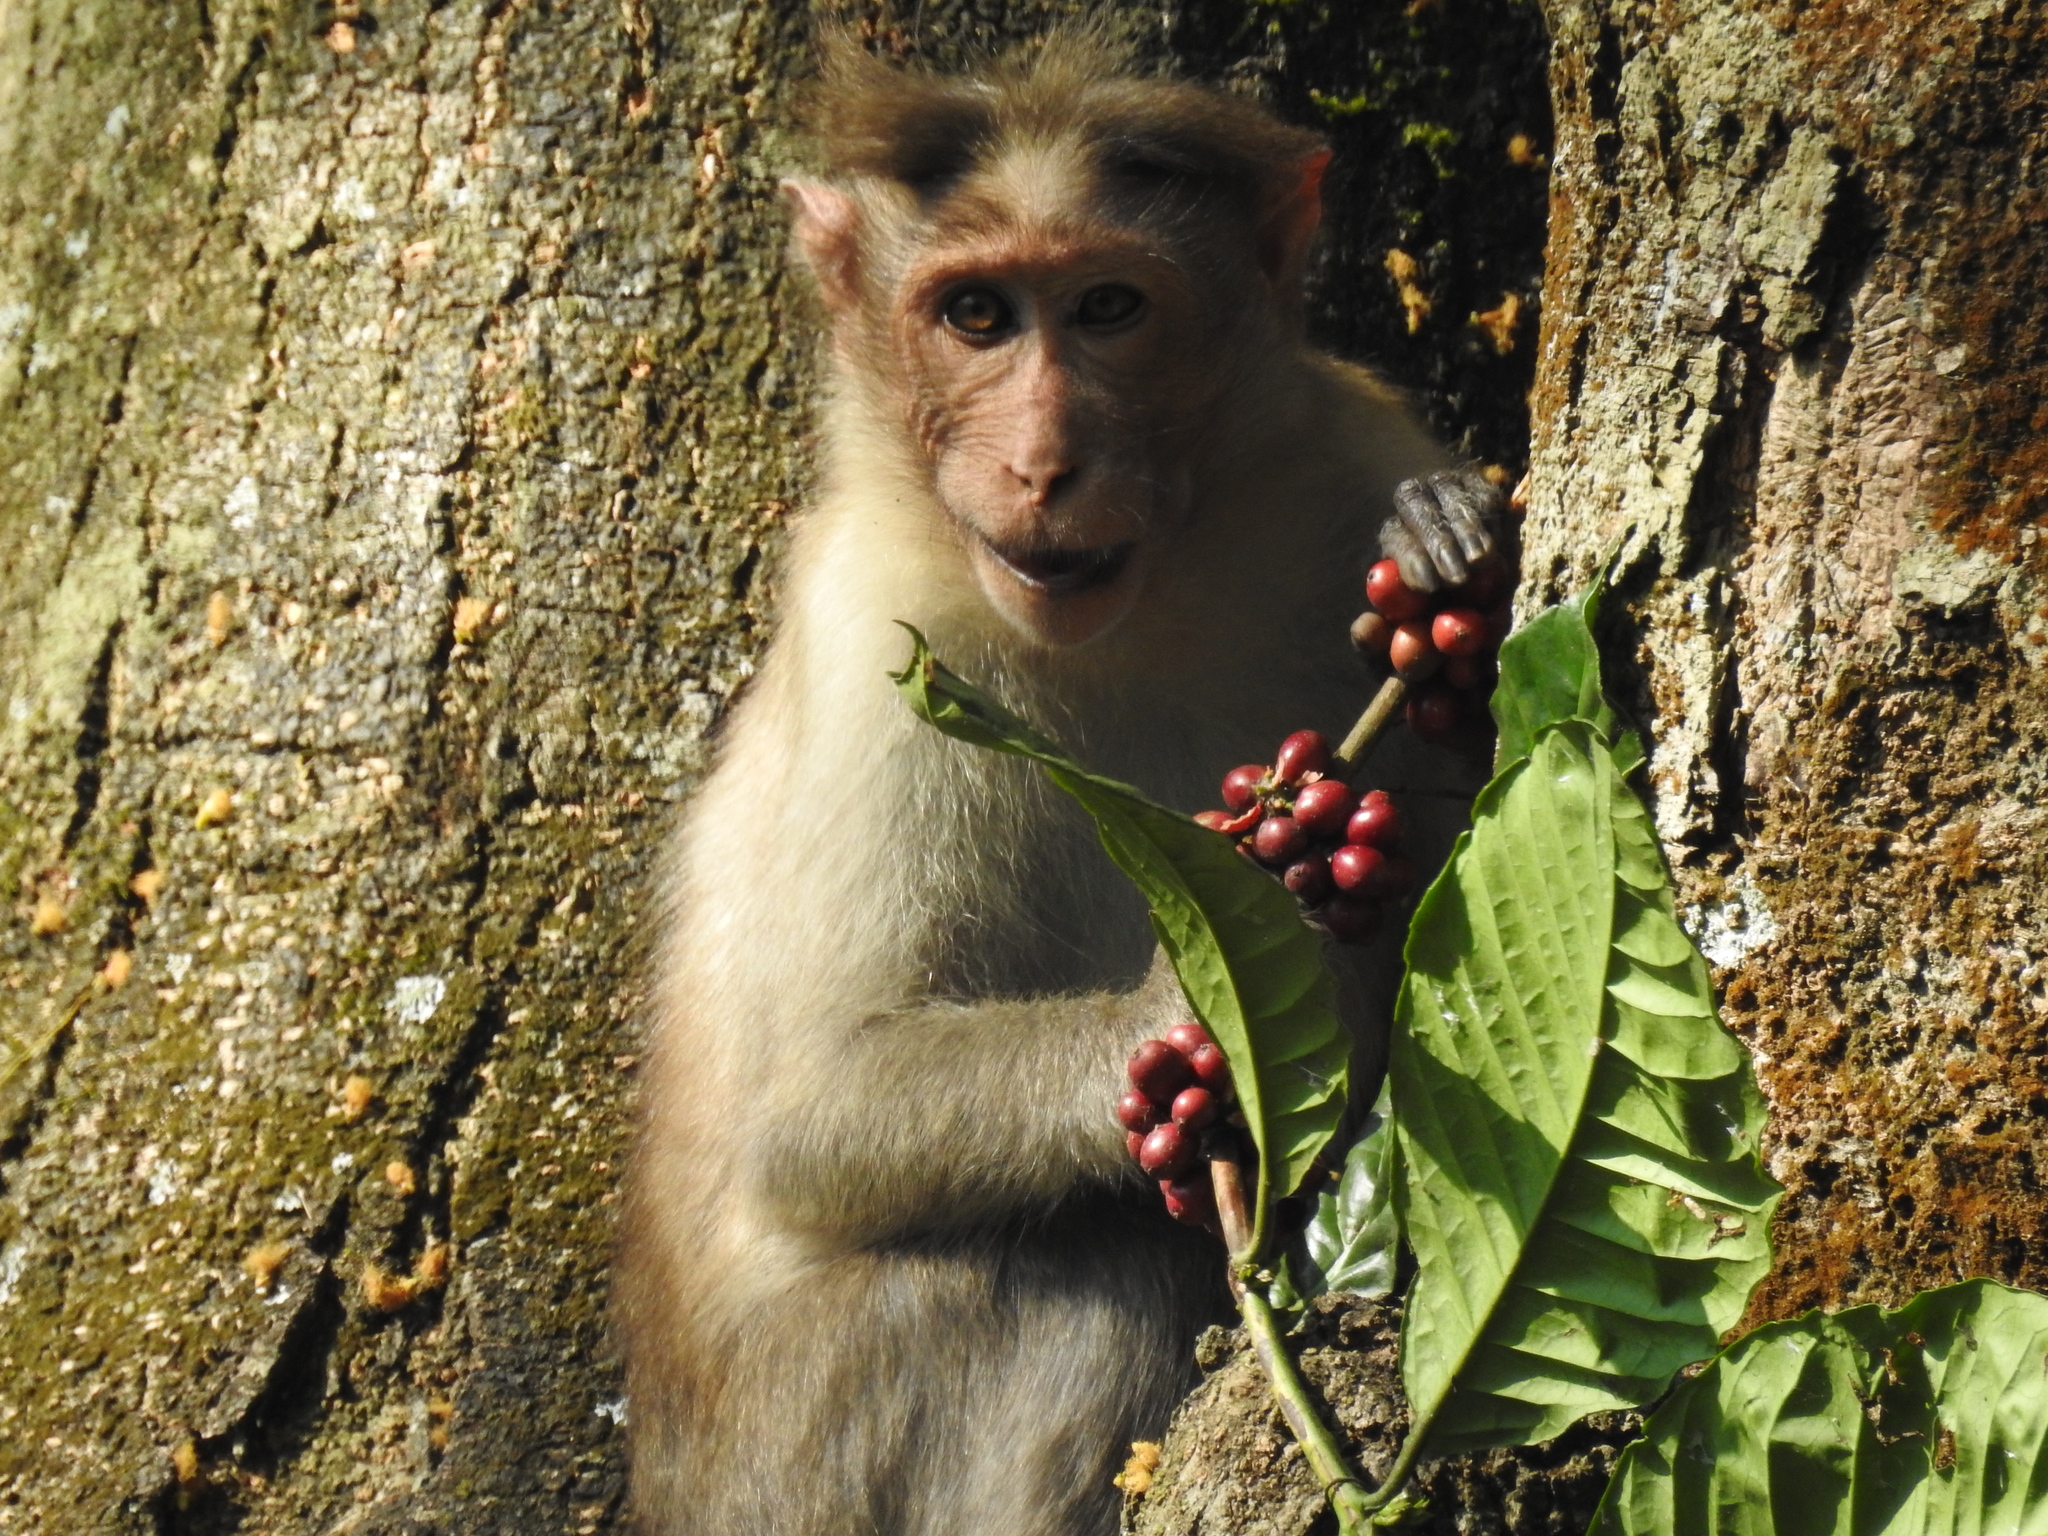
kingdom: Animalia
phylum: Chordata
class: Mammalia
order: Primates
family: Cercopithecidae
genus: Macaca
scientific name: Macaca radiata
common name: Bonnet macaque
